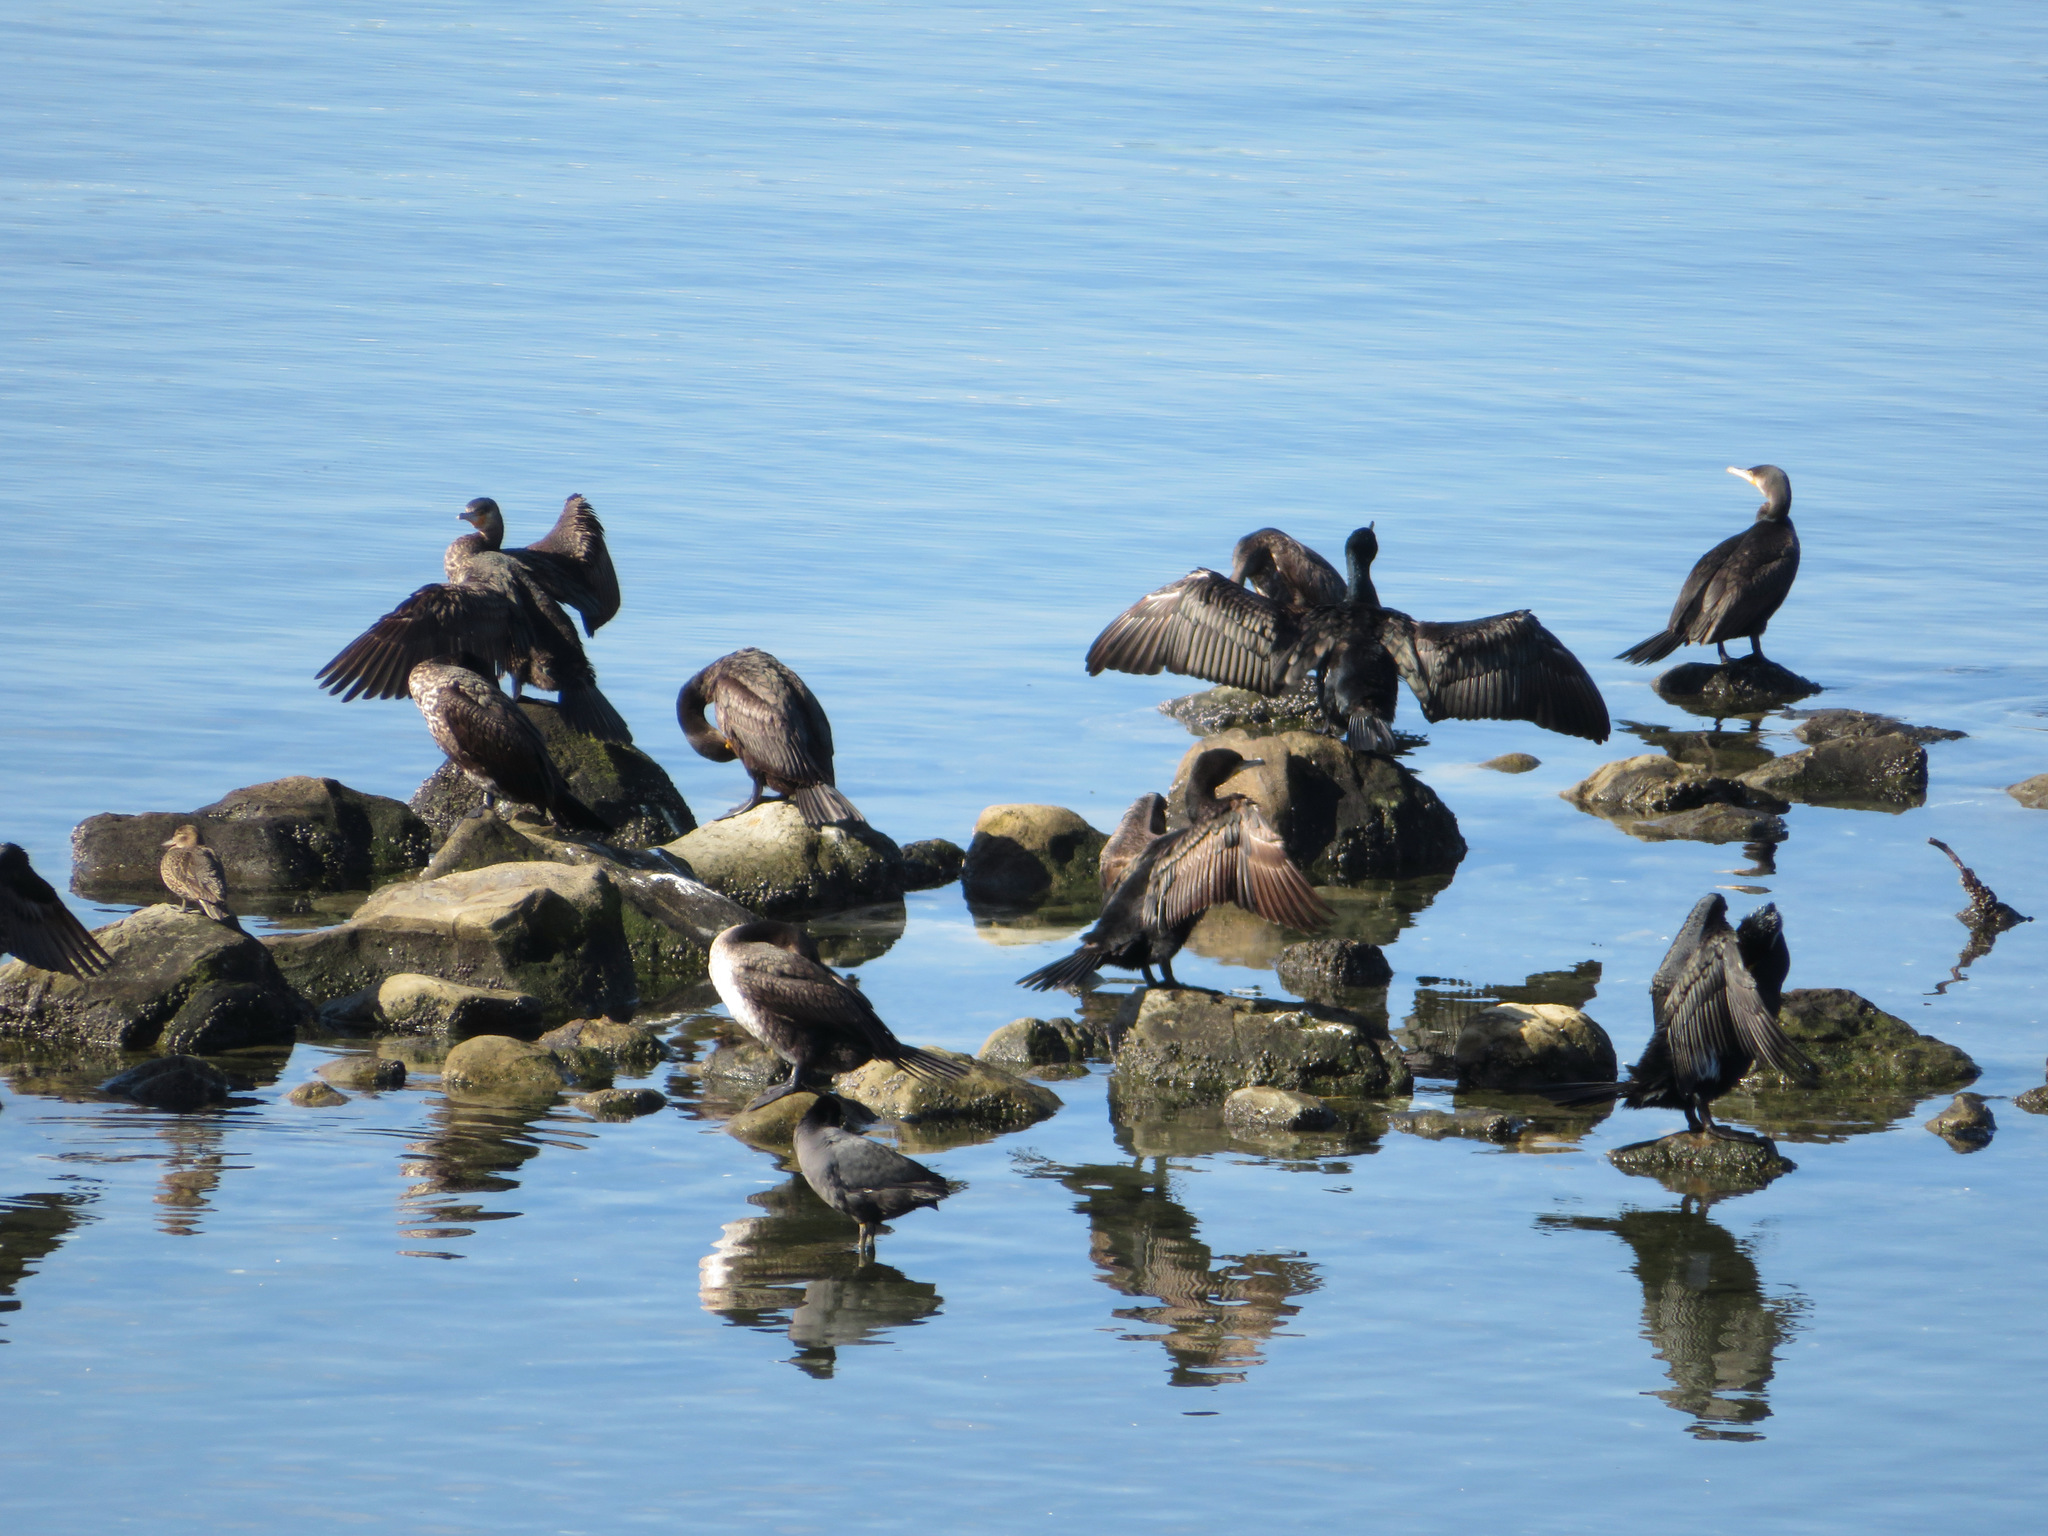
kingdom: Animalia
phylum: Chordata
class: Aves
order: Suliformes
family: Phalacrocoracidae
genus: Phalacrocorax
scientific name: Phalacrocorax carbo
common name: Great cormorant
